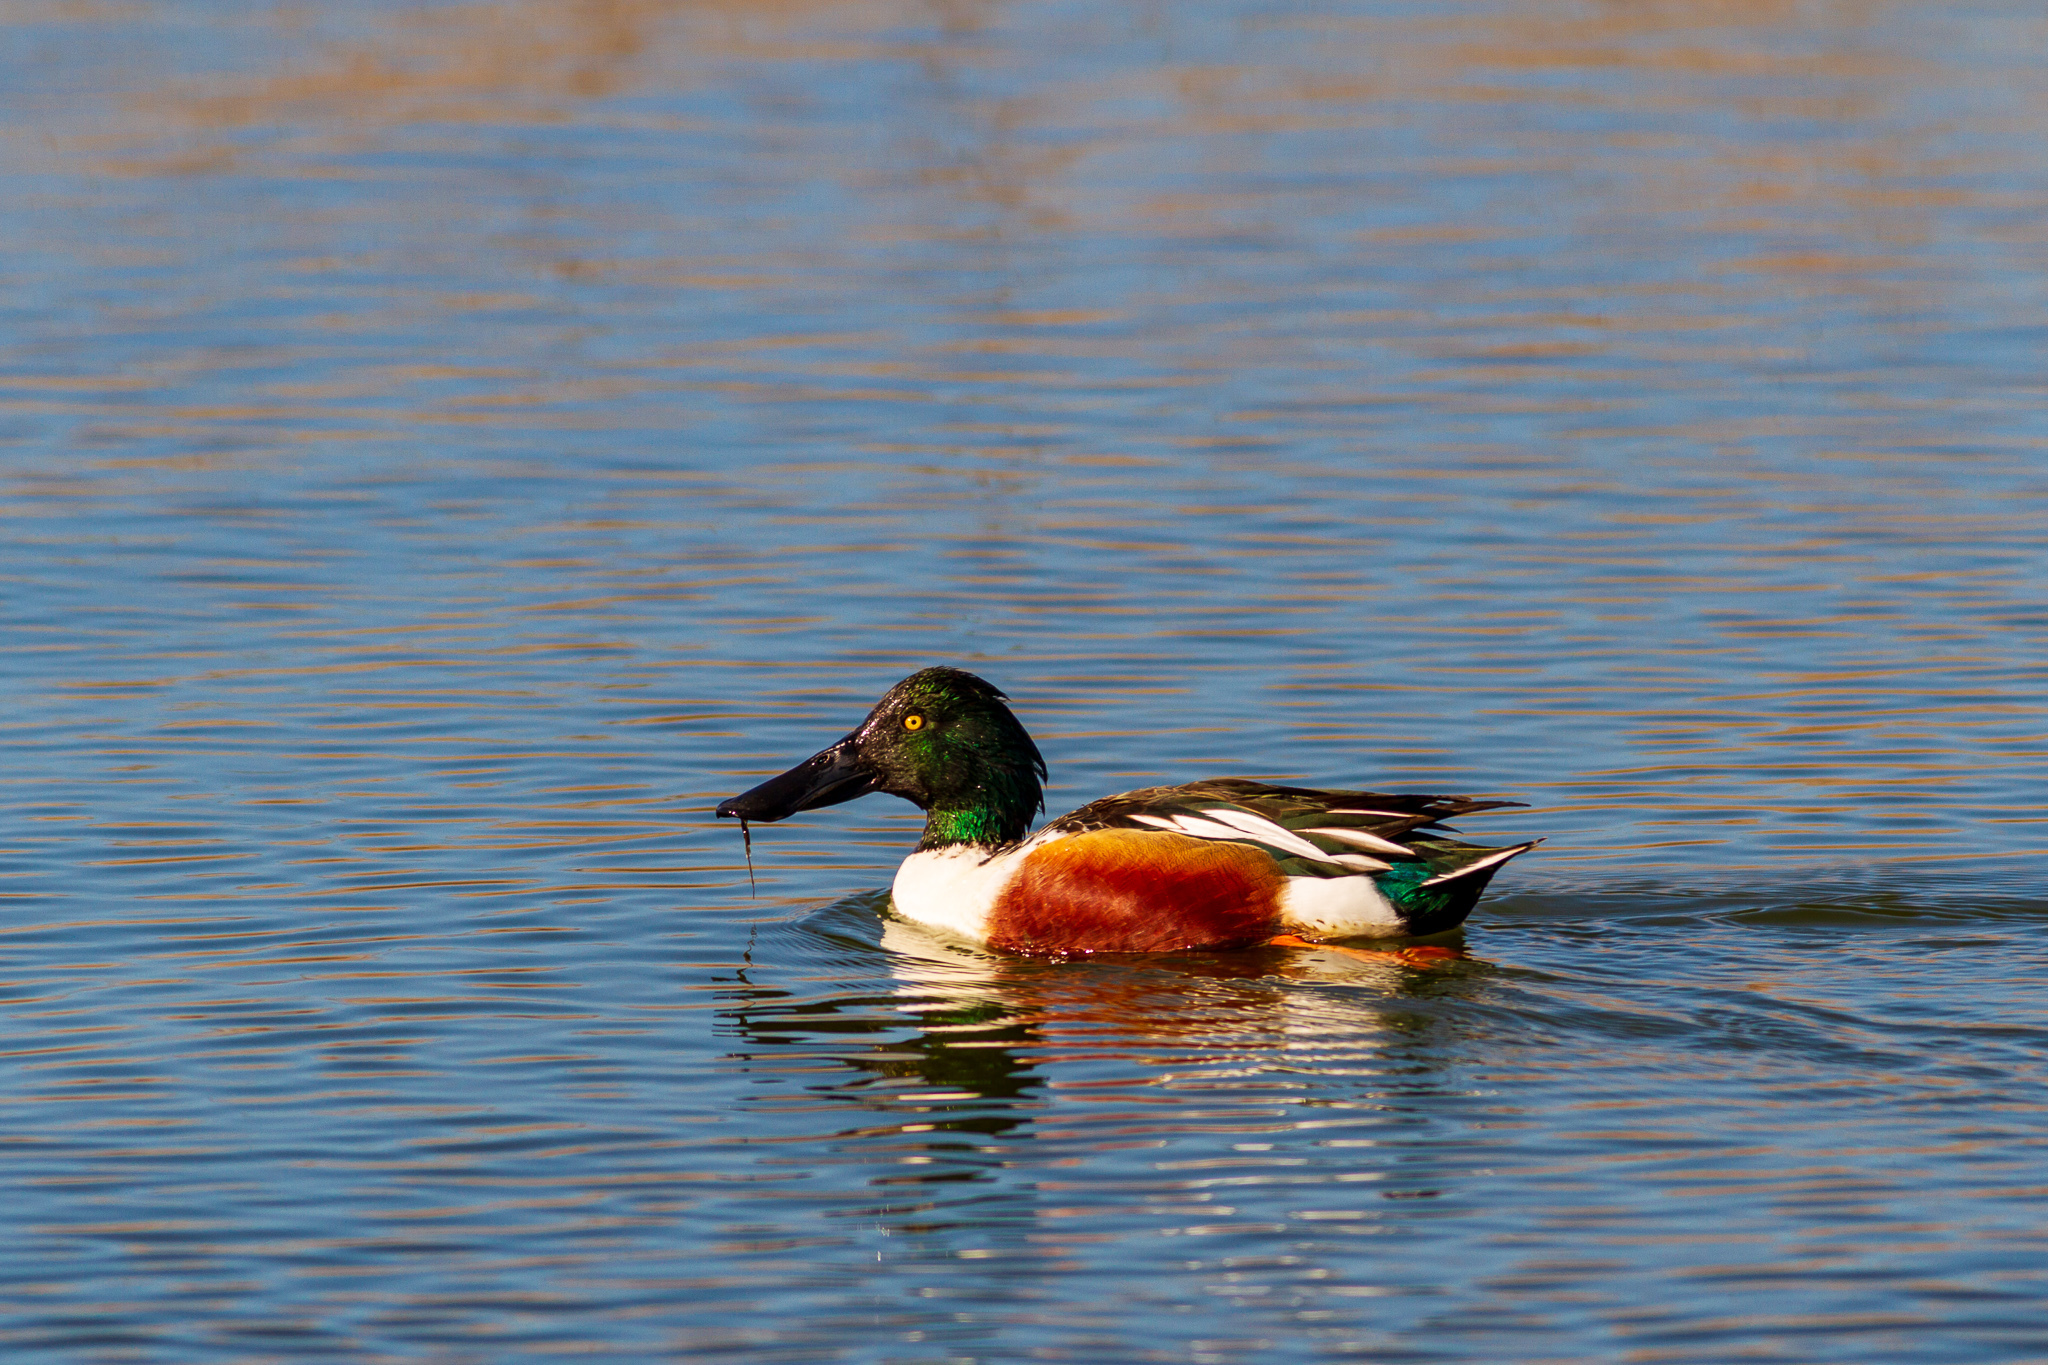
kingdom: Animalia
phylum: Chordata
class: Aves
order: Anseriformes
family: Anatidae
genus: Spatula
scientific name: Spatula clypeata
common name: Northern shoveler
